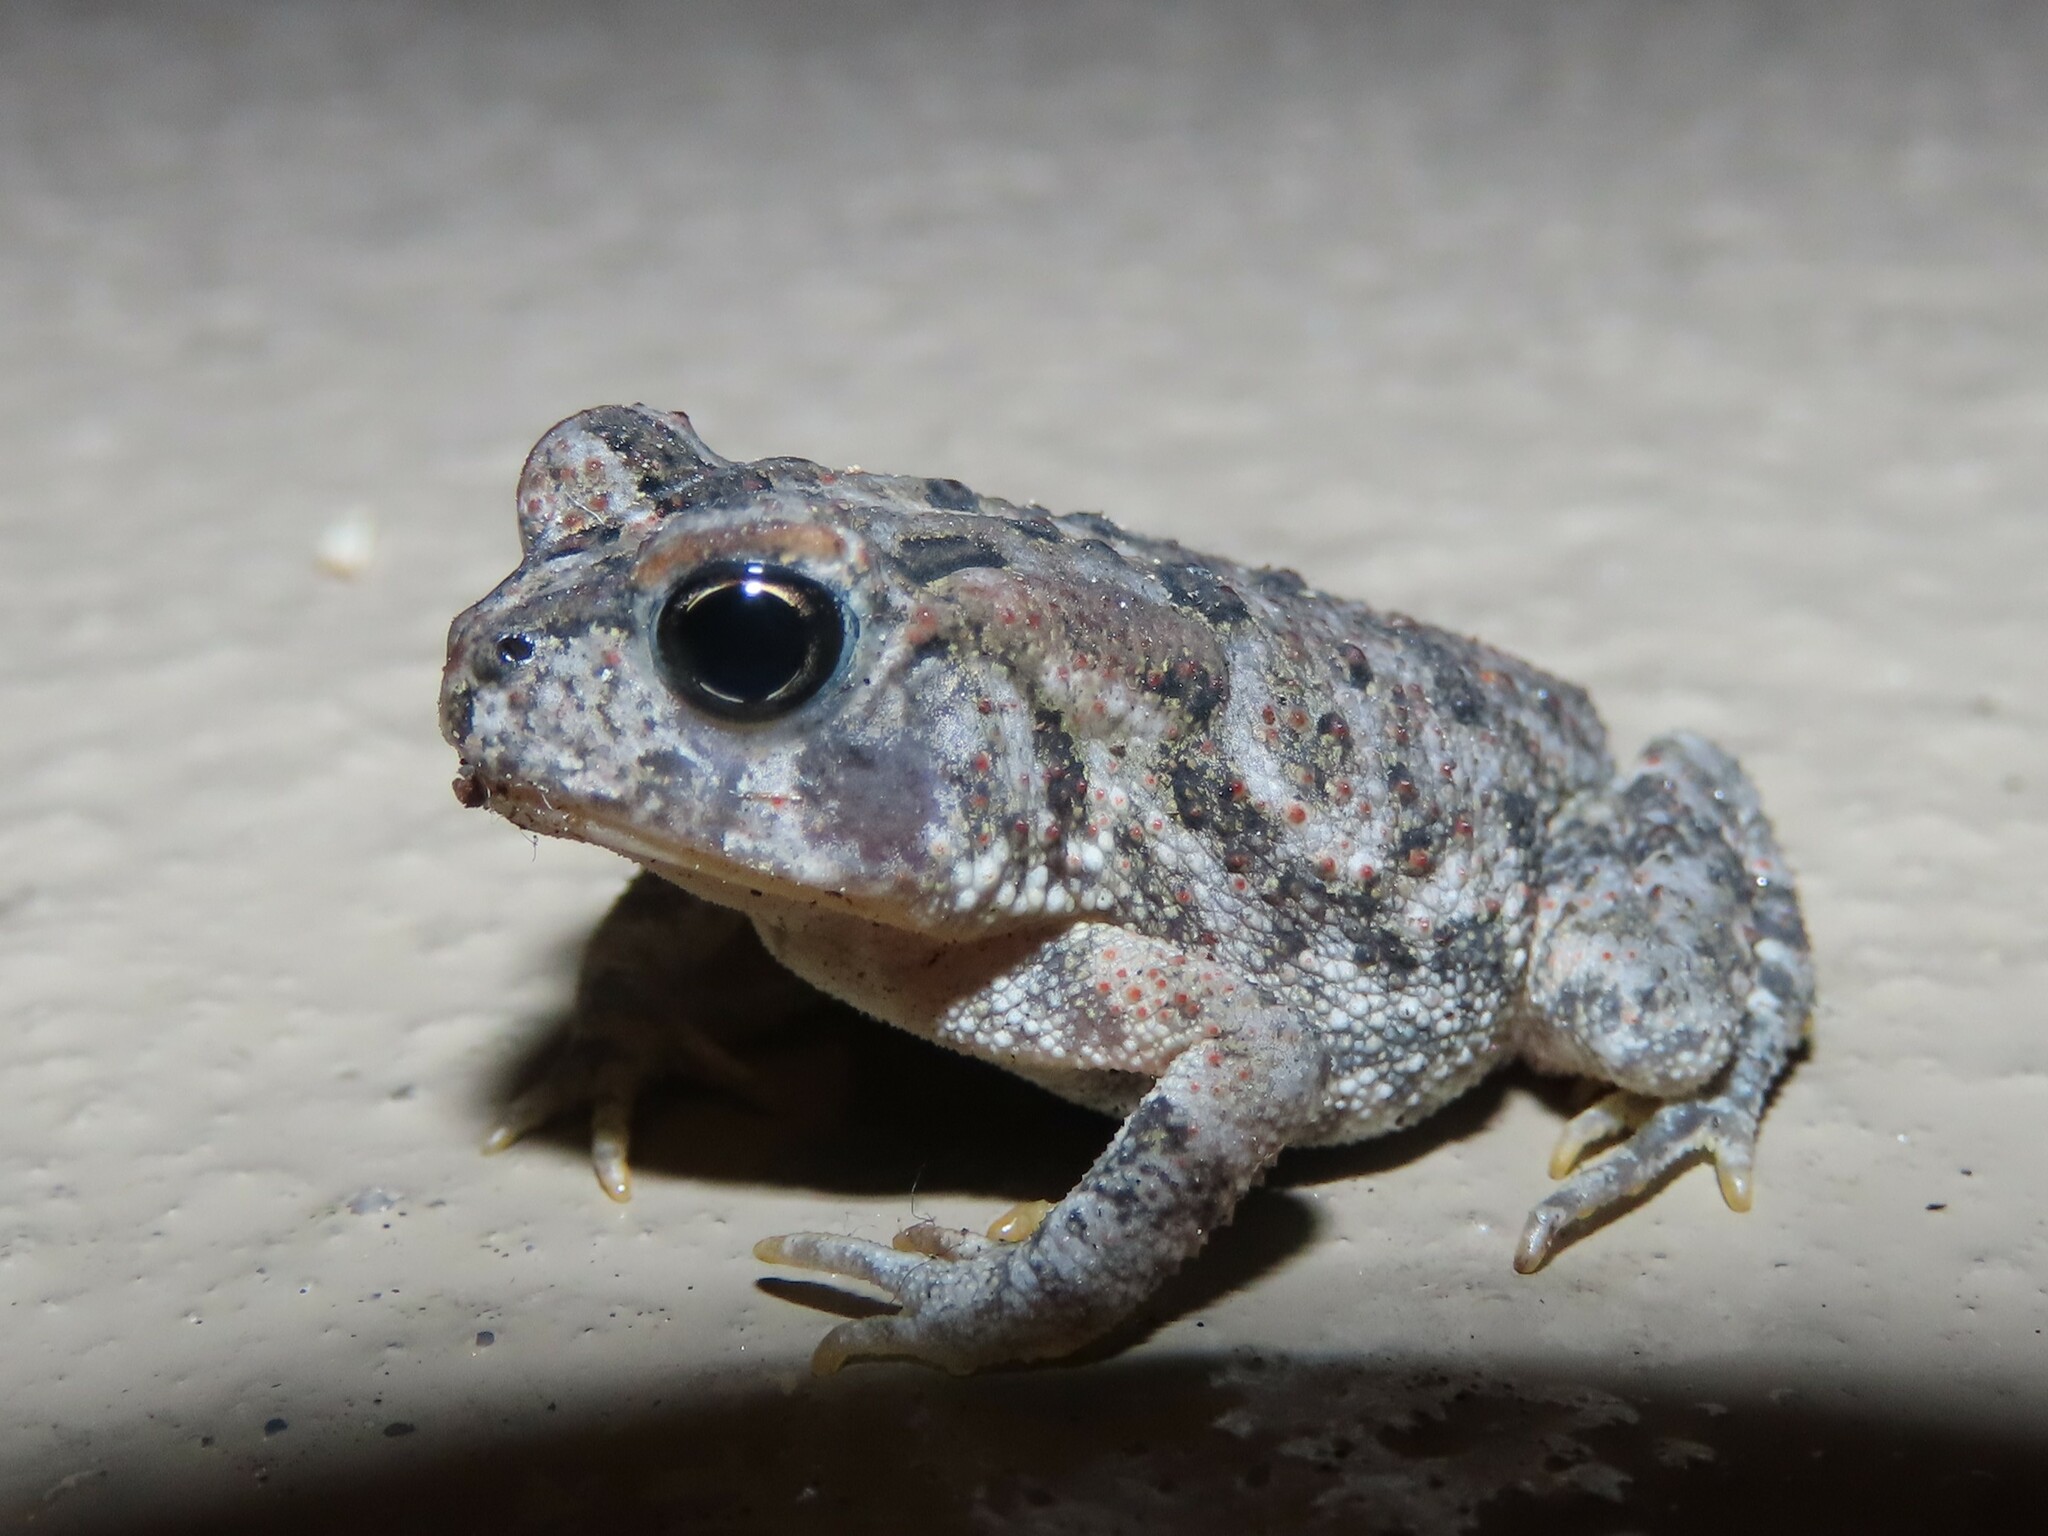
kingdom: Animalia
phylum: Chordata
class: Amphibia
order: Anura
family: Bufonidae
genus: Anaxyrus
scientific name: Anaxyrus terrestris
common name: Southern toad
